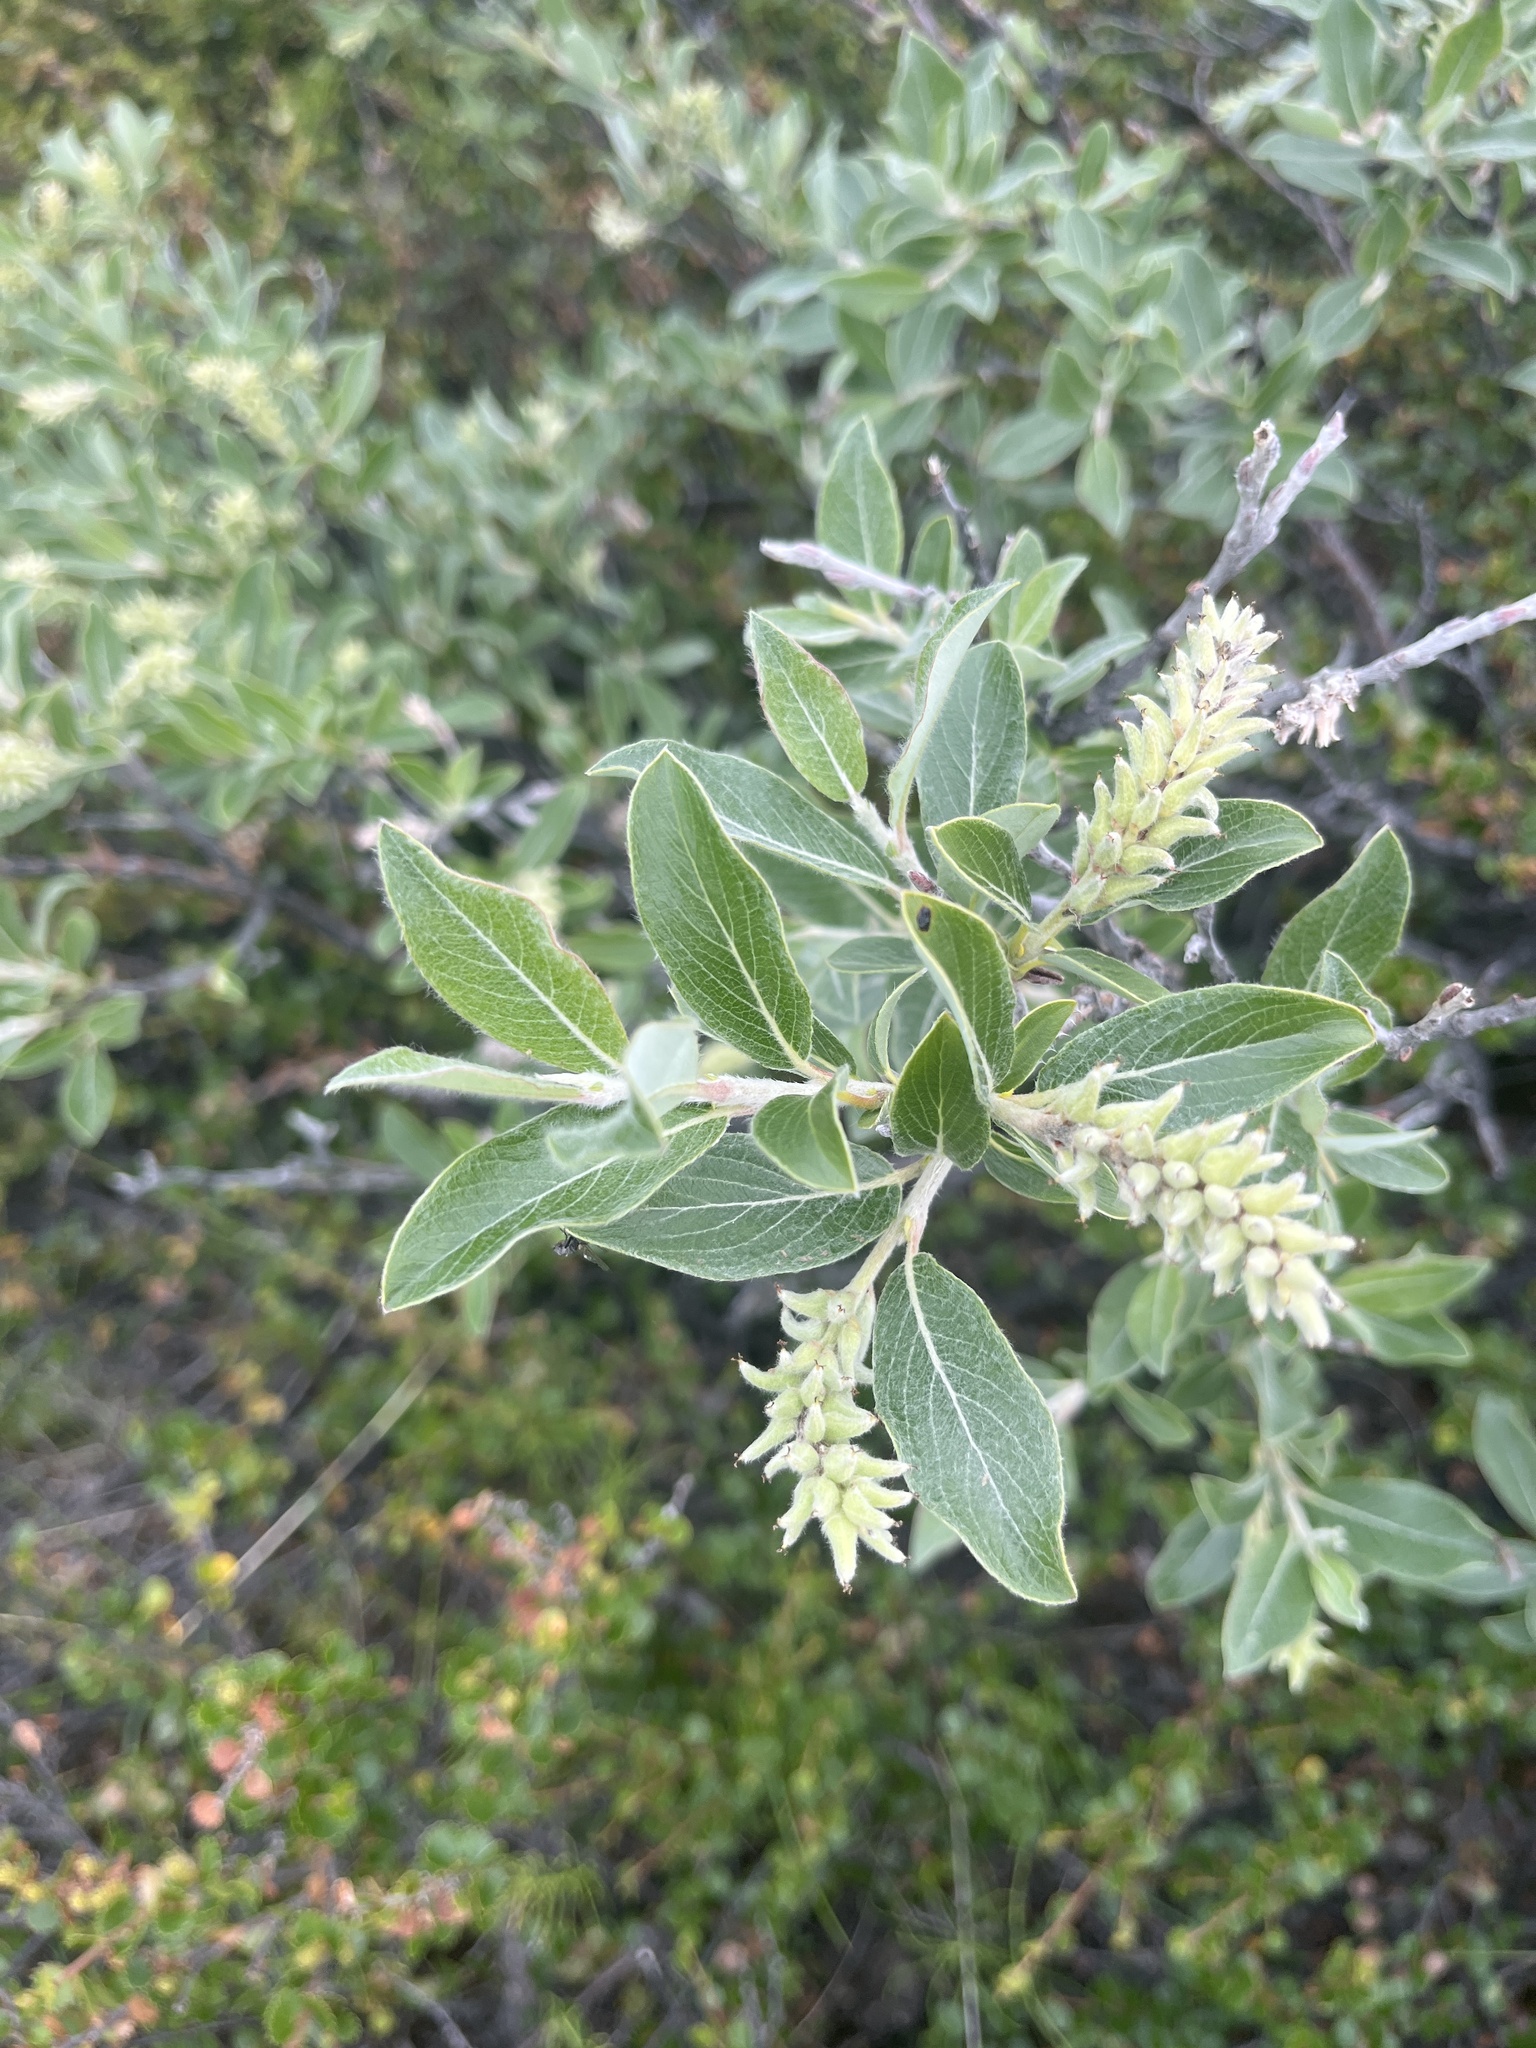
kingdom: Plantae
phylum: Tracheophyta
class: Magnoliopsida
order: Malpighiales
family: Salicaceae
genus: Salix
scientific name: Salix glauca
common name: Glaucous willow
